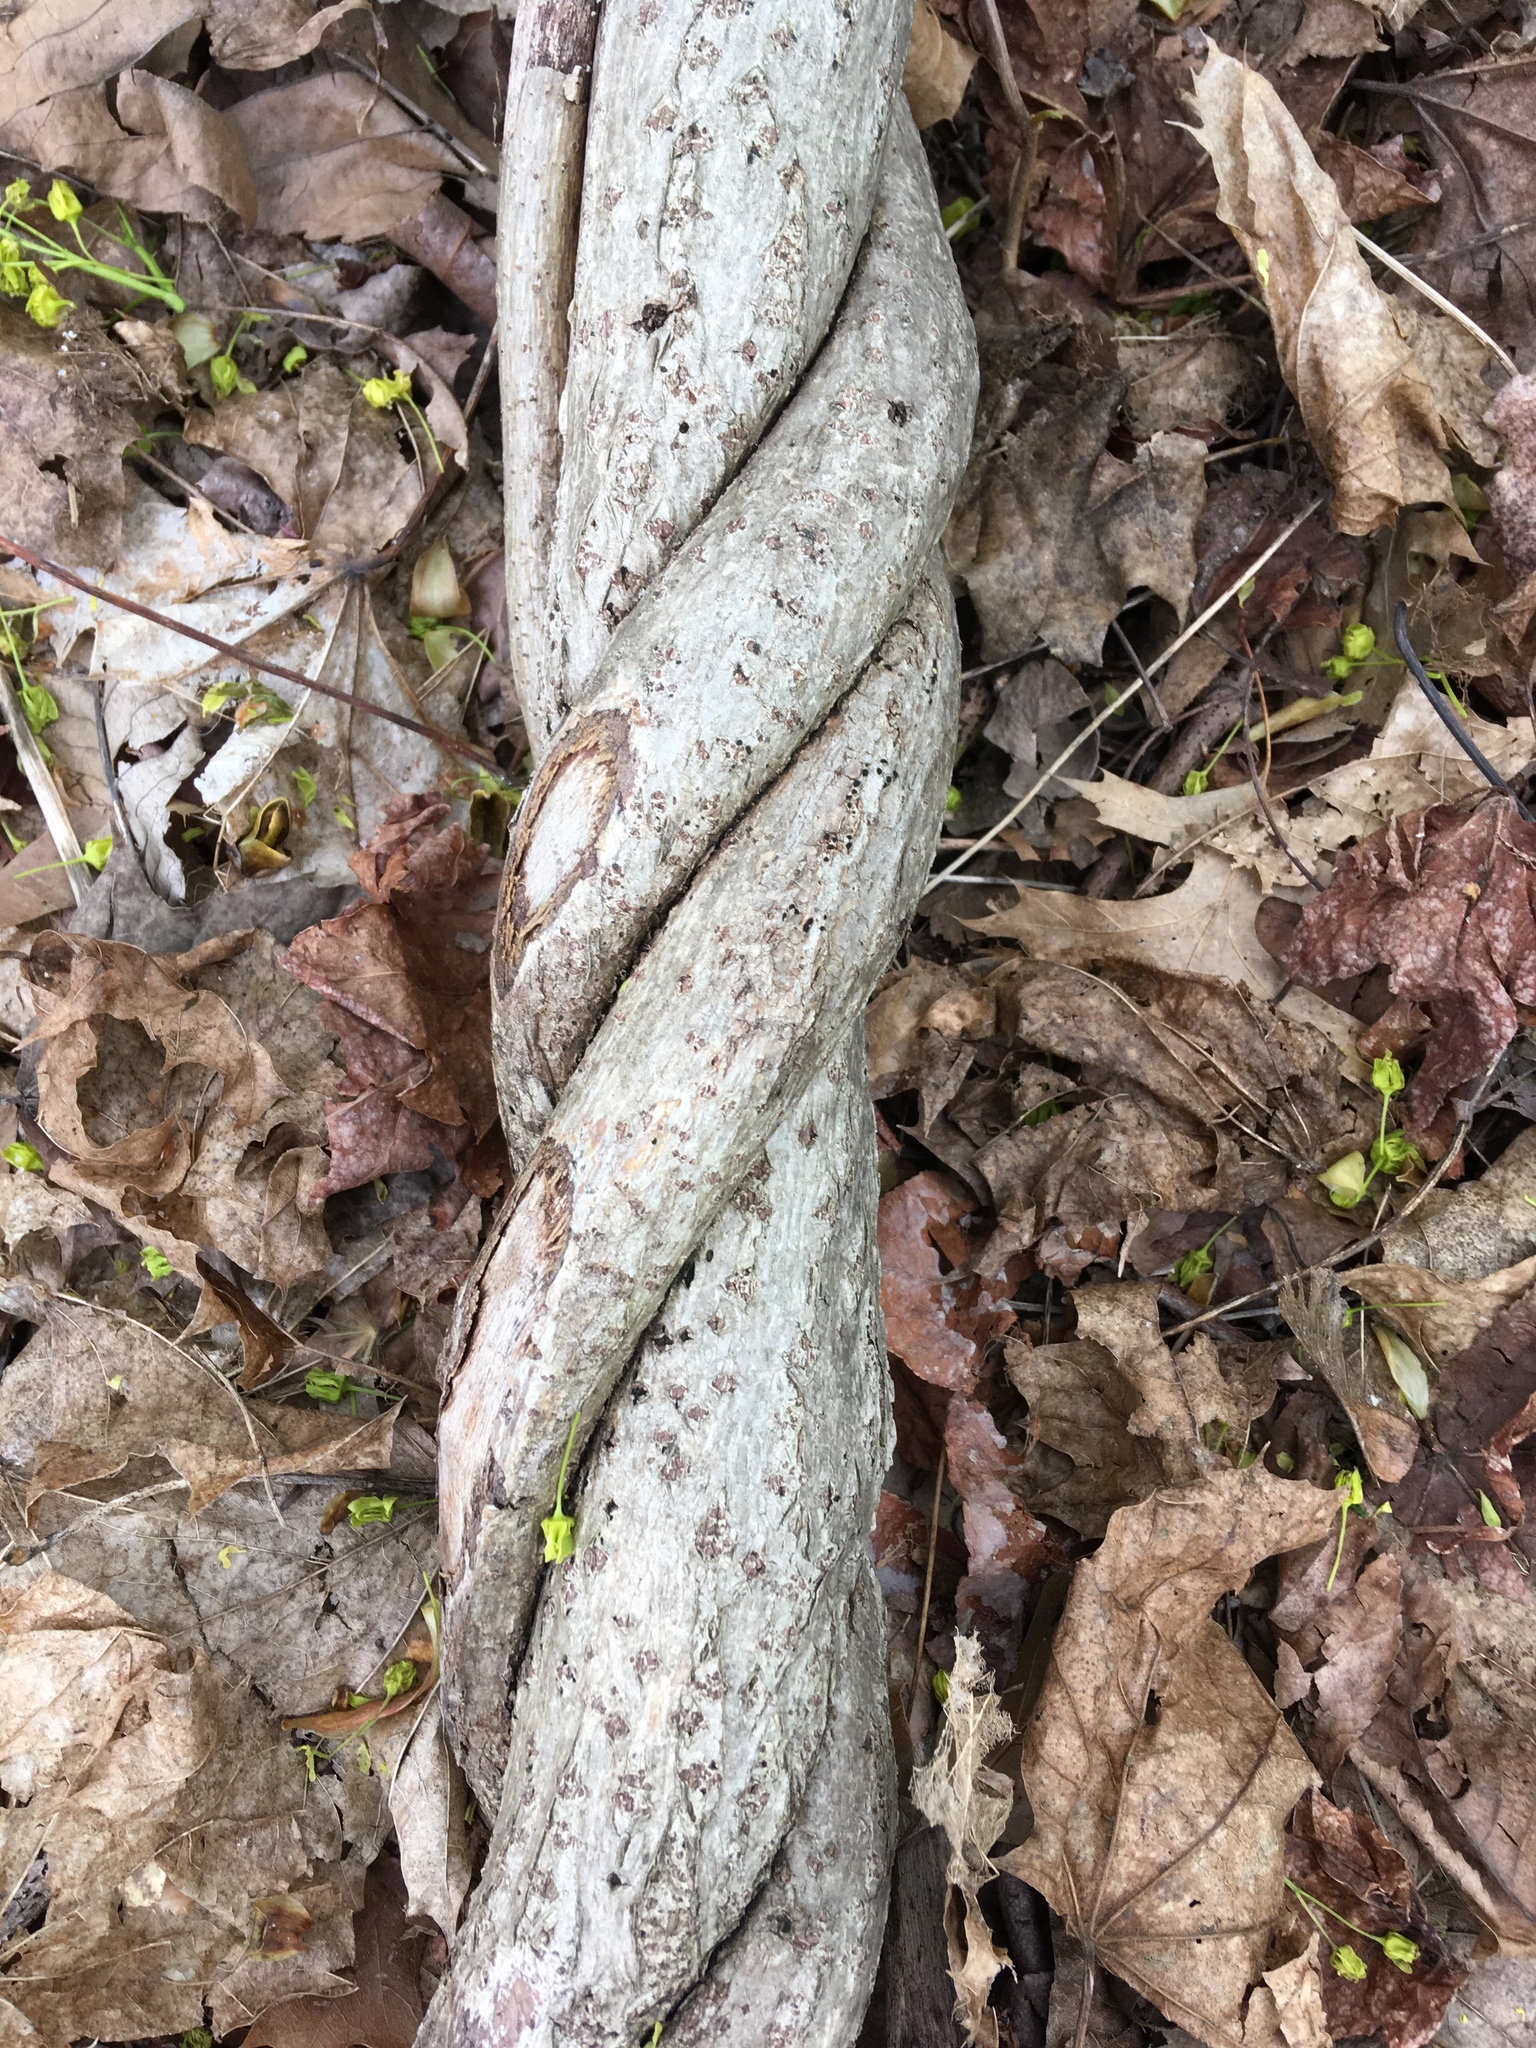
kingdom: Plantae
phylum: Tracheophyta
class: Magnoliopsida
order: Celastrales
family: Celastraceae
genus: Celastrus
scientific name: Celastrus orbiculatus
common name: Oriental bittersweet
